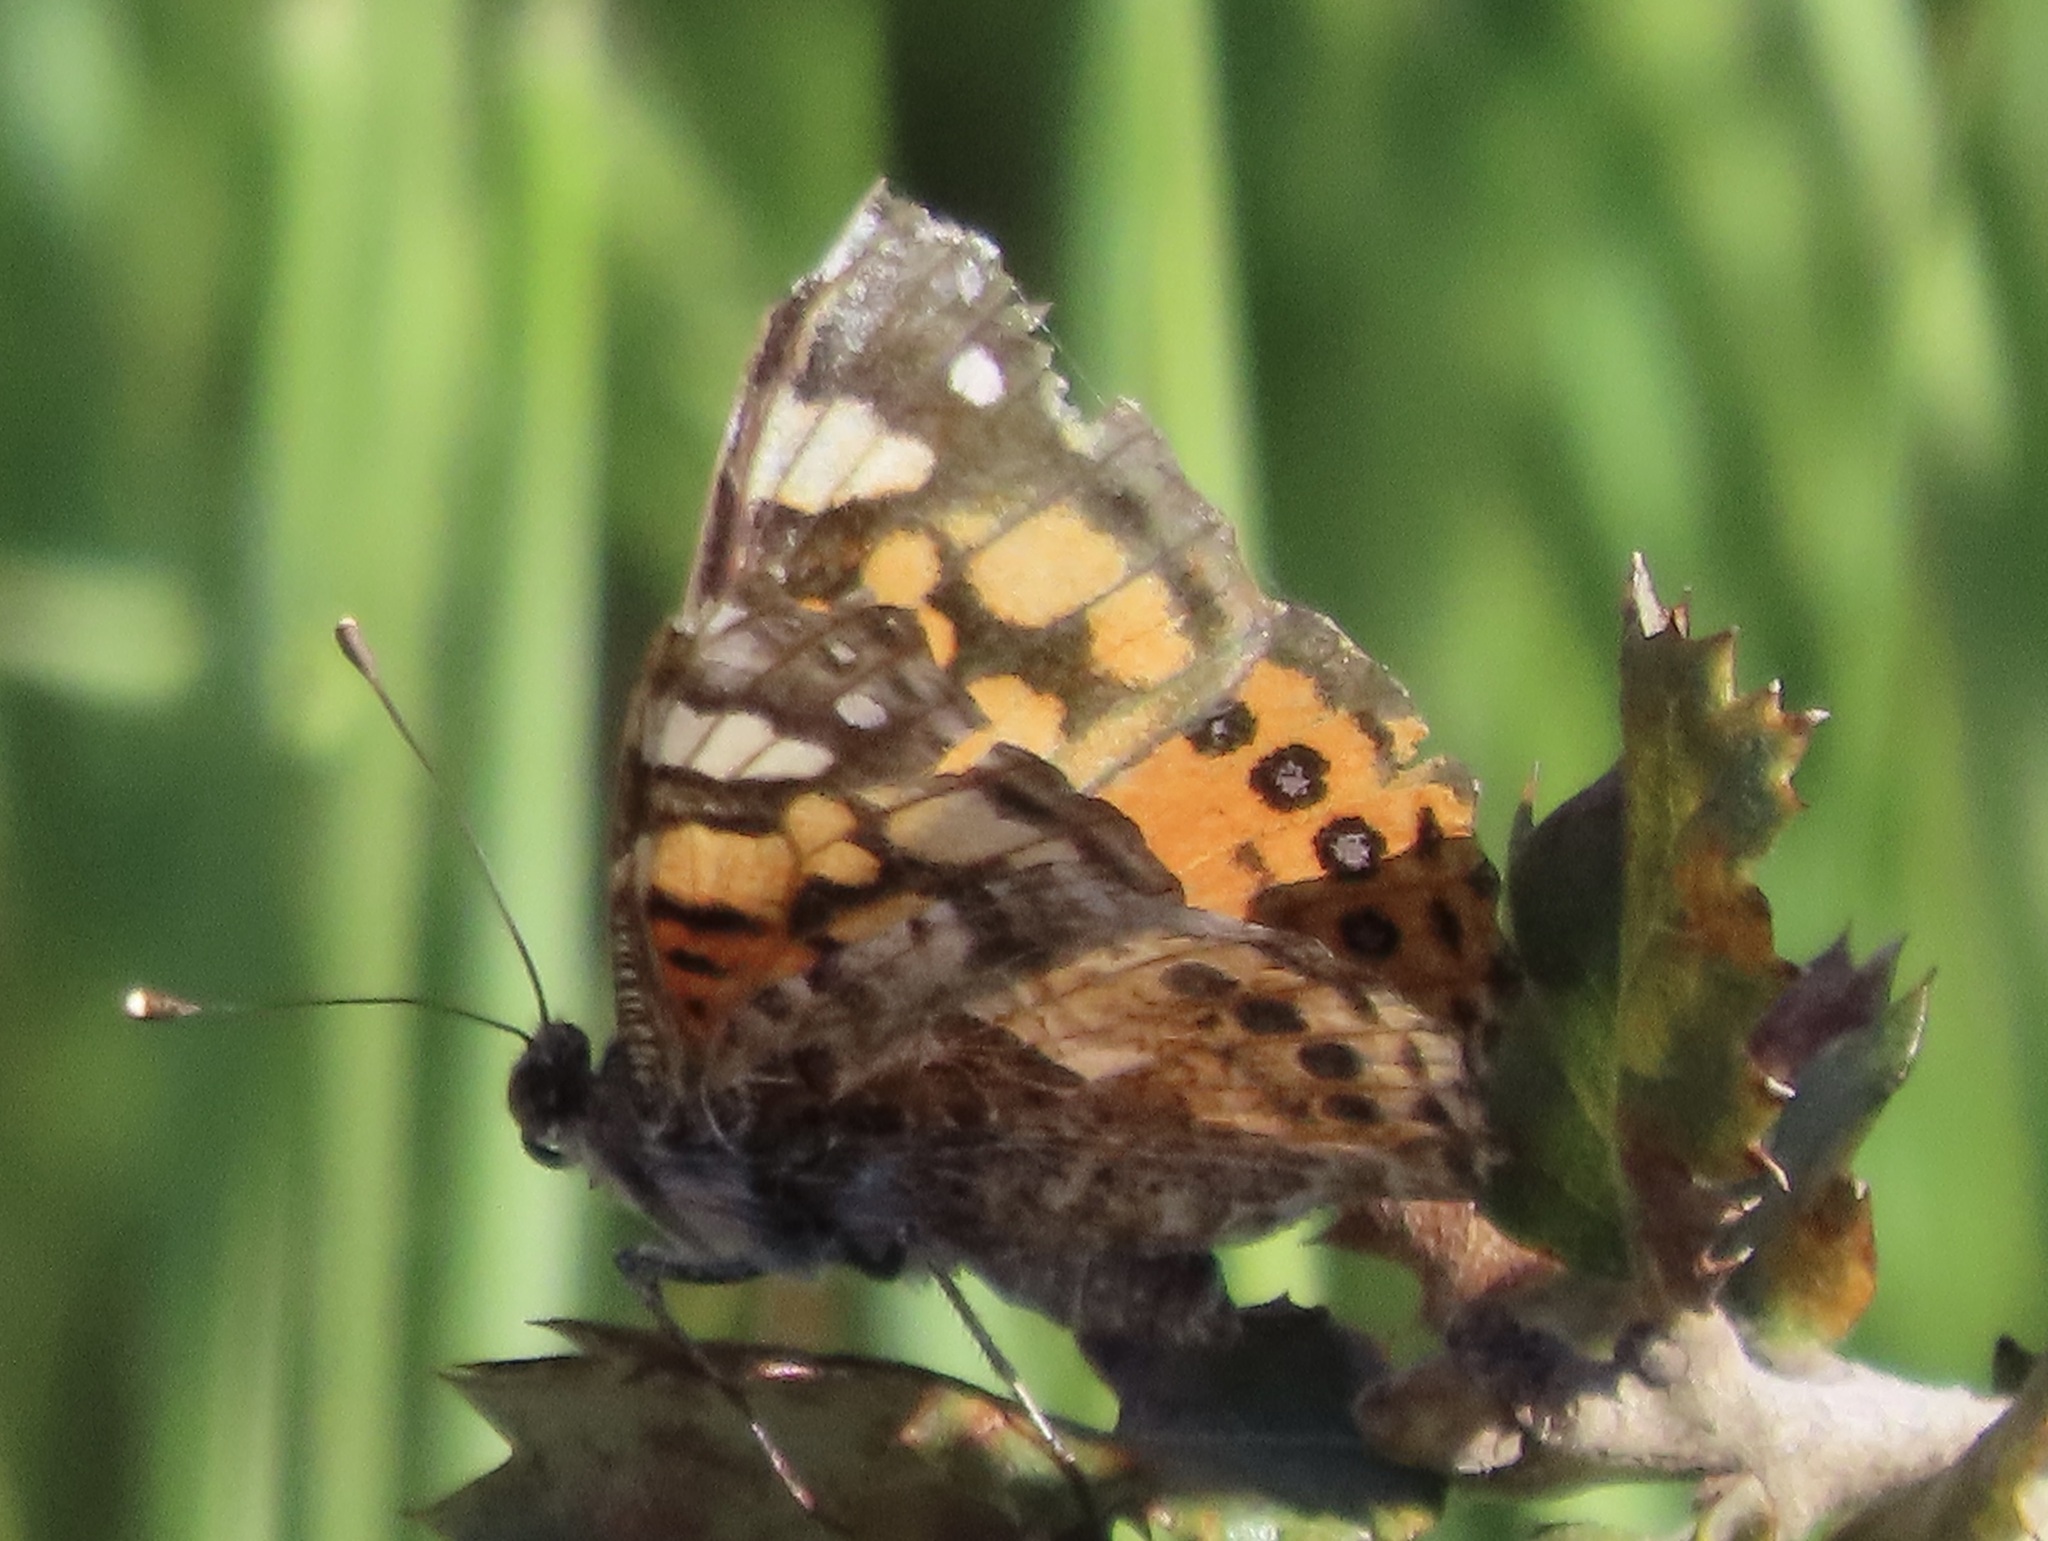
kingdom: Animalia
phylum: Arthropoda
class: Insecta
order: Lepidoptera
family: Nymphalidae
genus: Vanessa
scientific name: Vanessa annabella
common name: West coast lady
